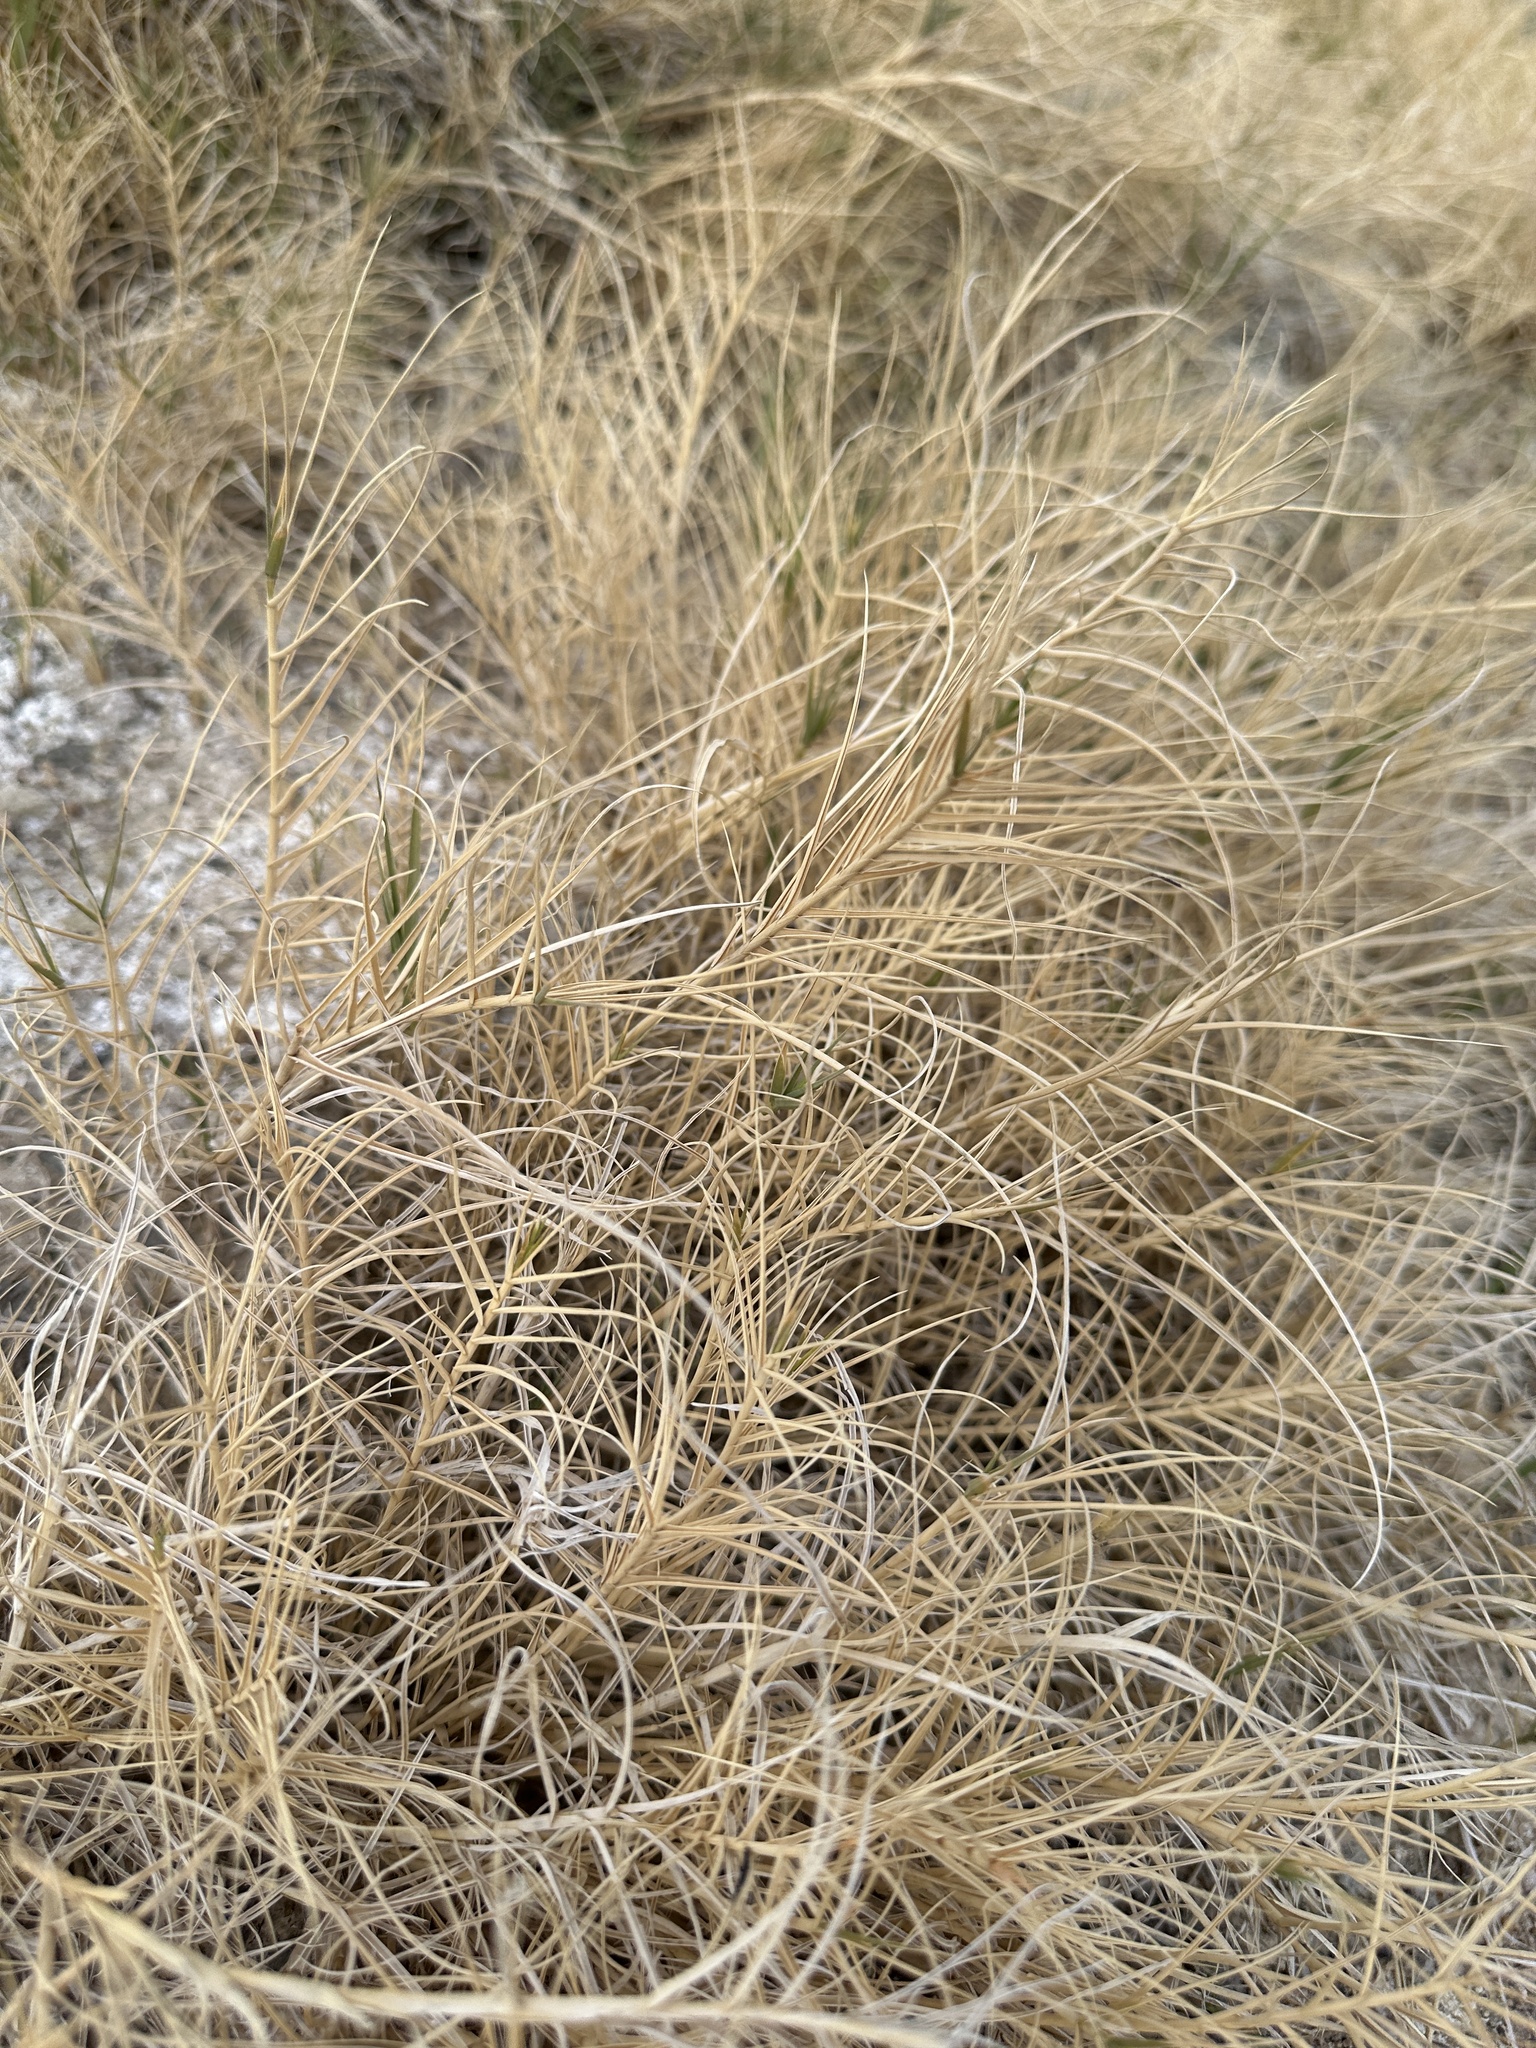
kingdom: Plantae
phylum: Tracheophyta
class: Liliopsida
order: Poales
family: Poaceae
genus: Distichlis
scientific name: Distichlis spicata
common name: Saltgrass
